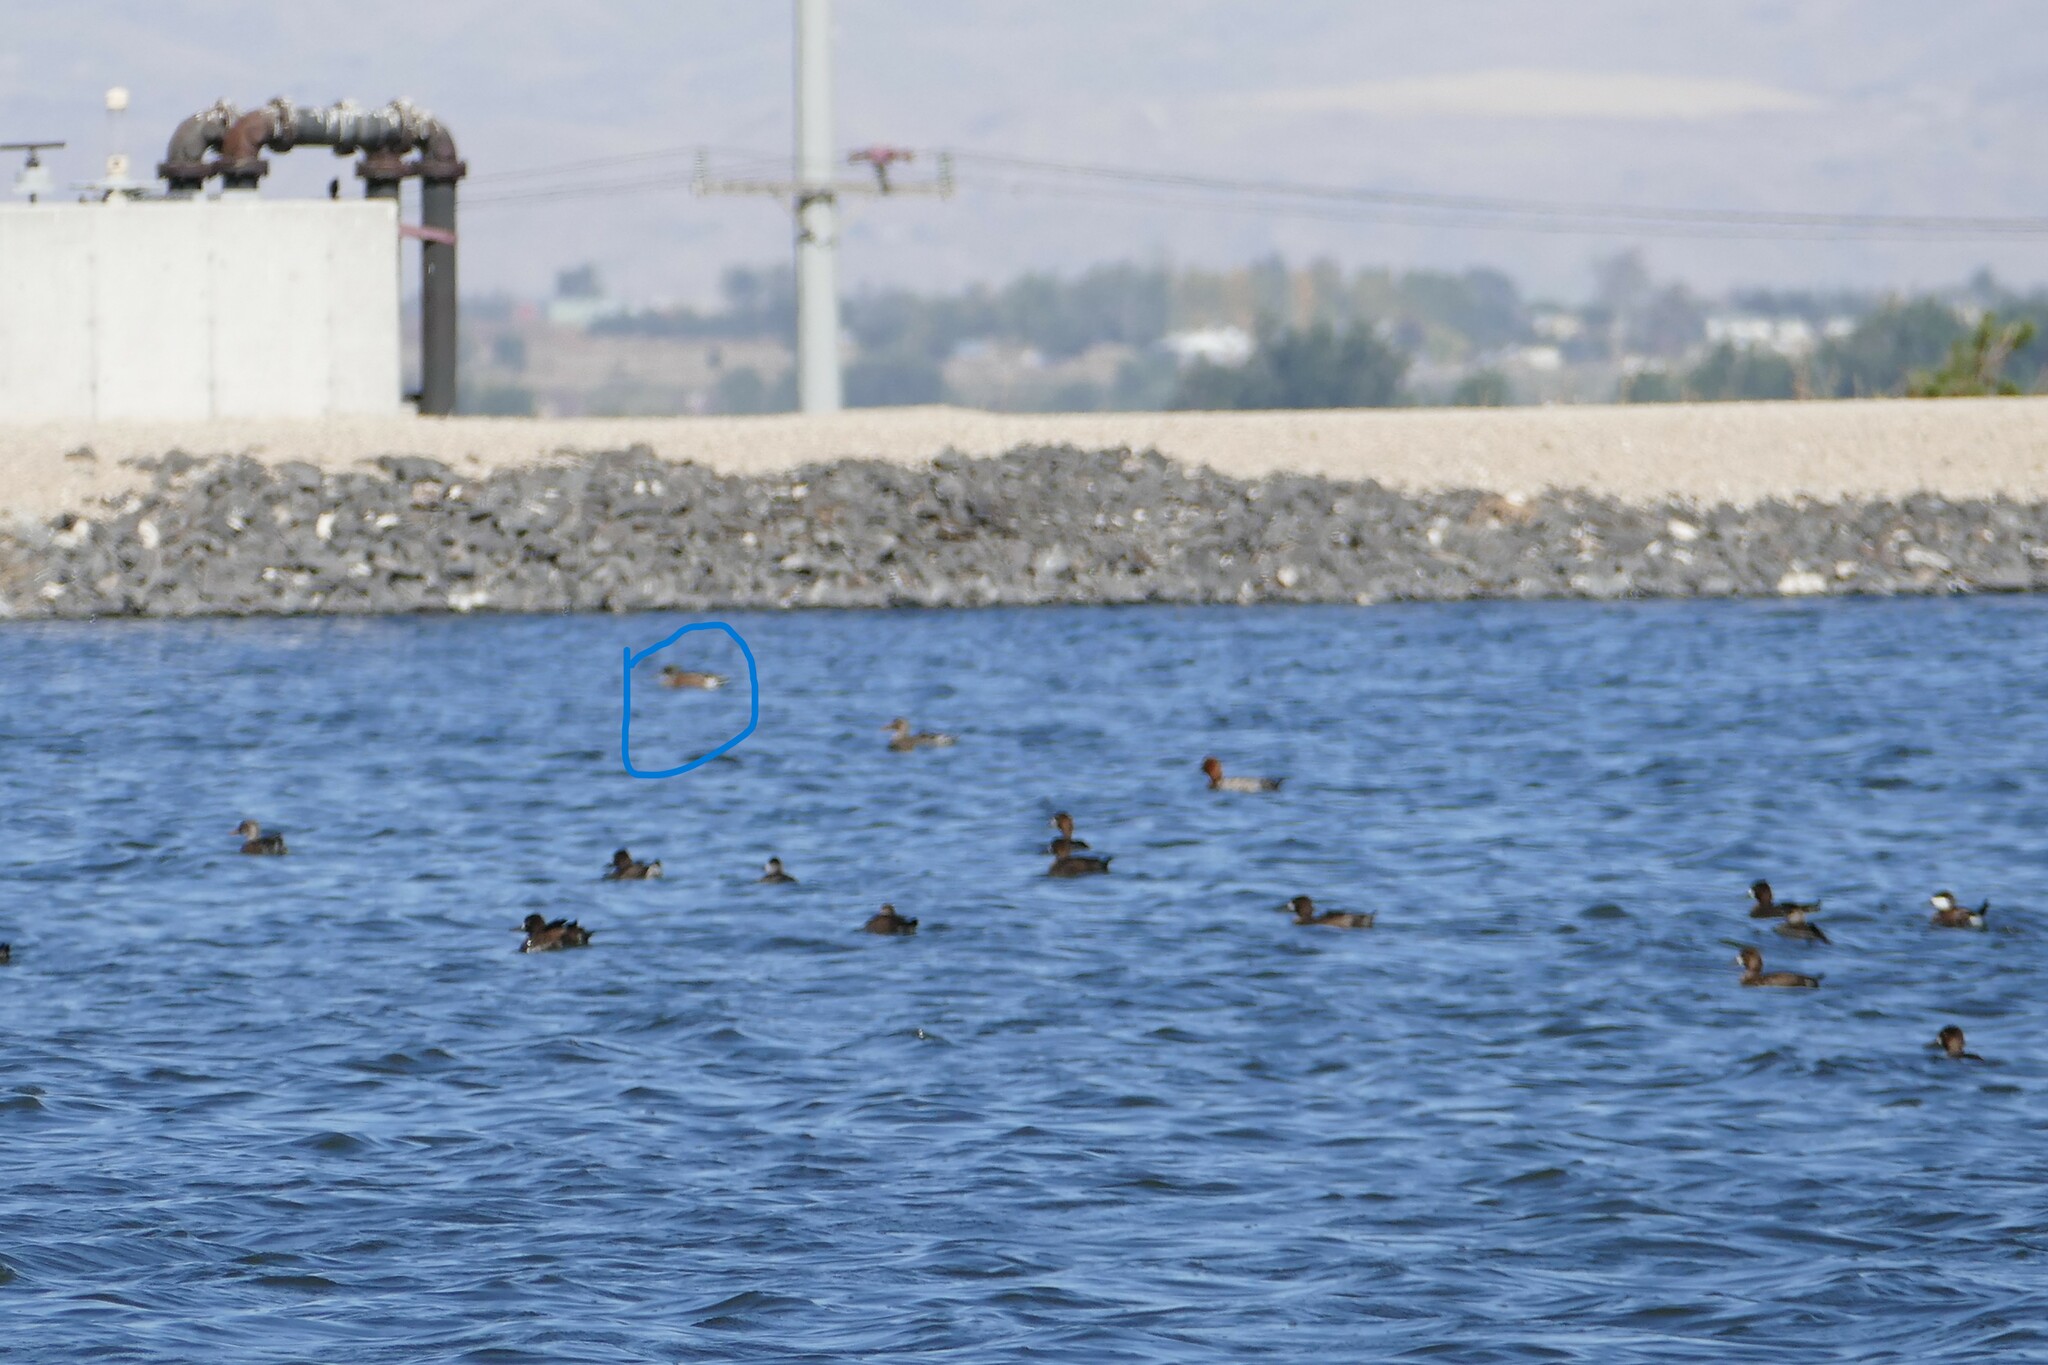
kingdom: Animalia
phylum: Chordata
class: Aves
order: Anseriformes
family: Anatidae
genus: Spatula
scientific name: Spatula discors
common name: Blue-winged teal
